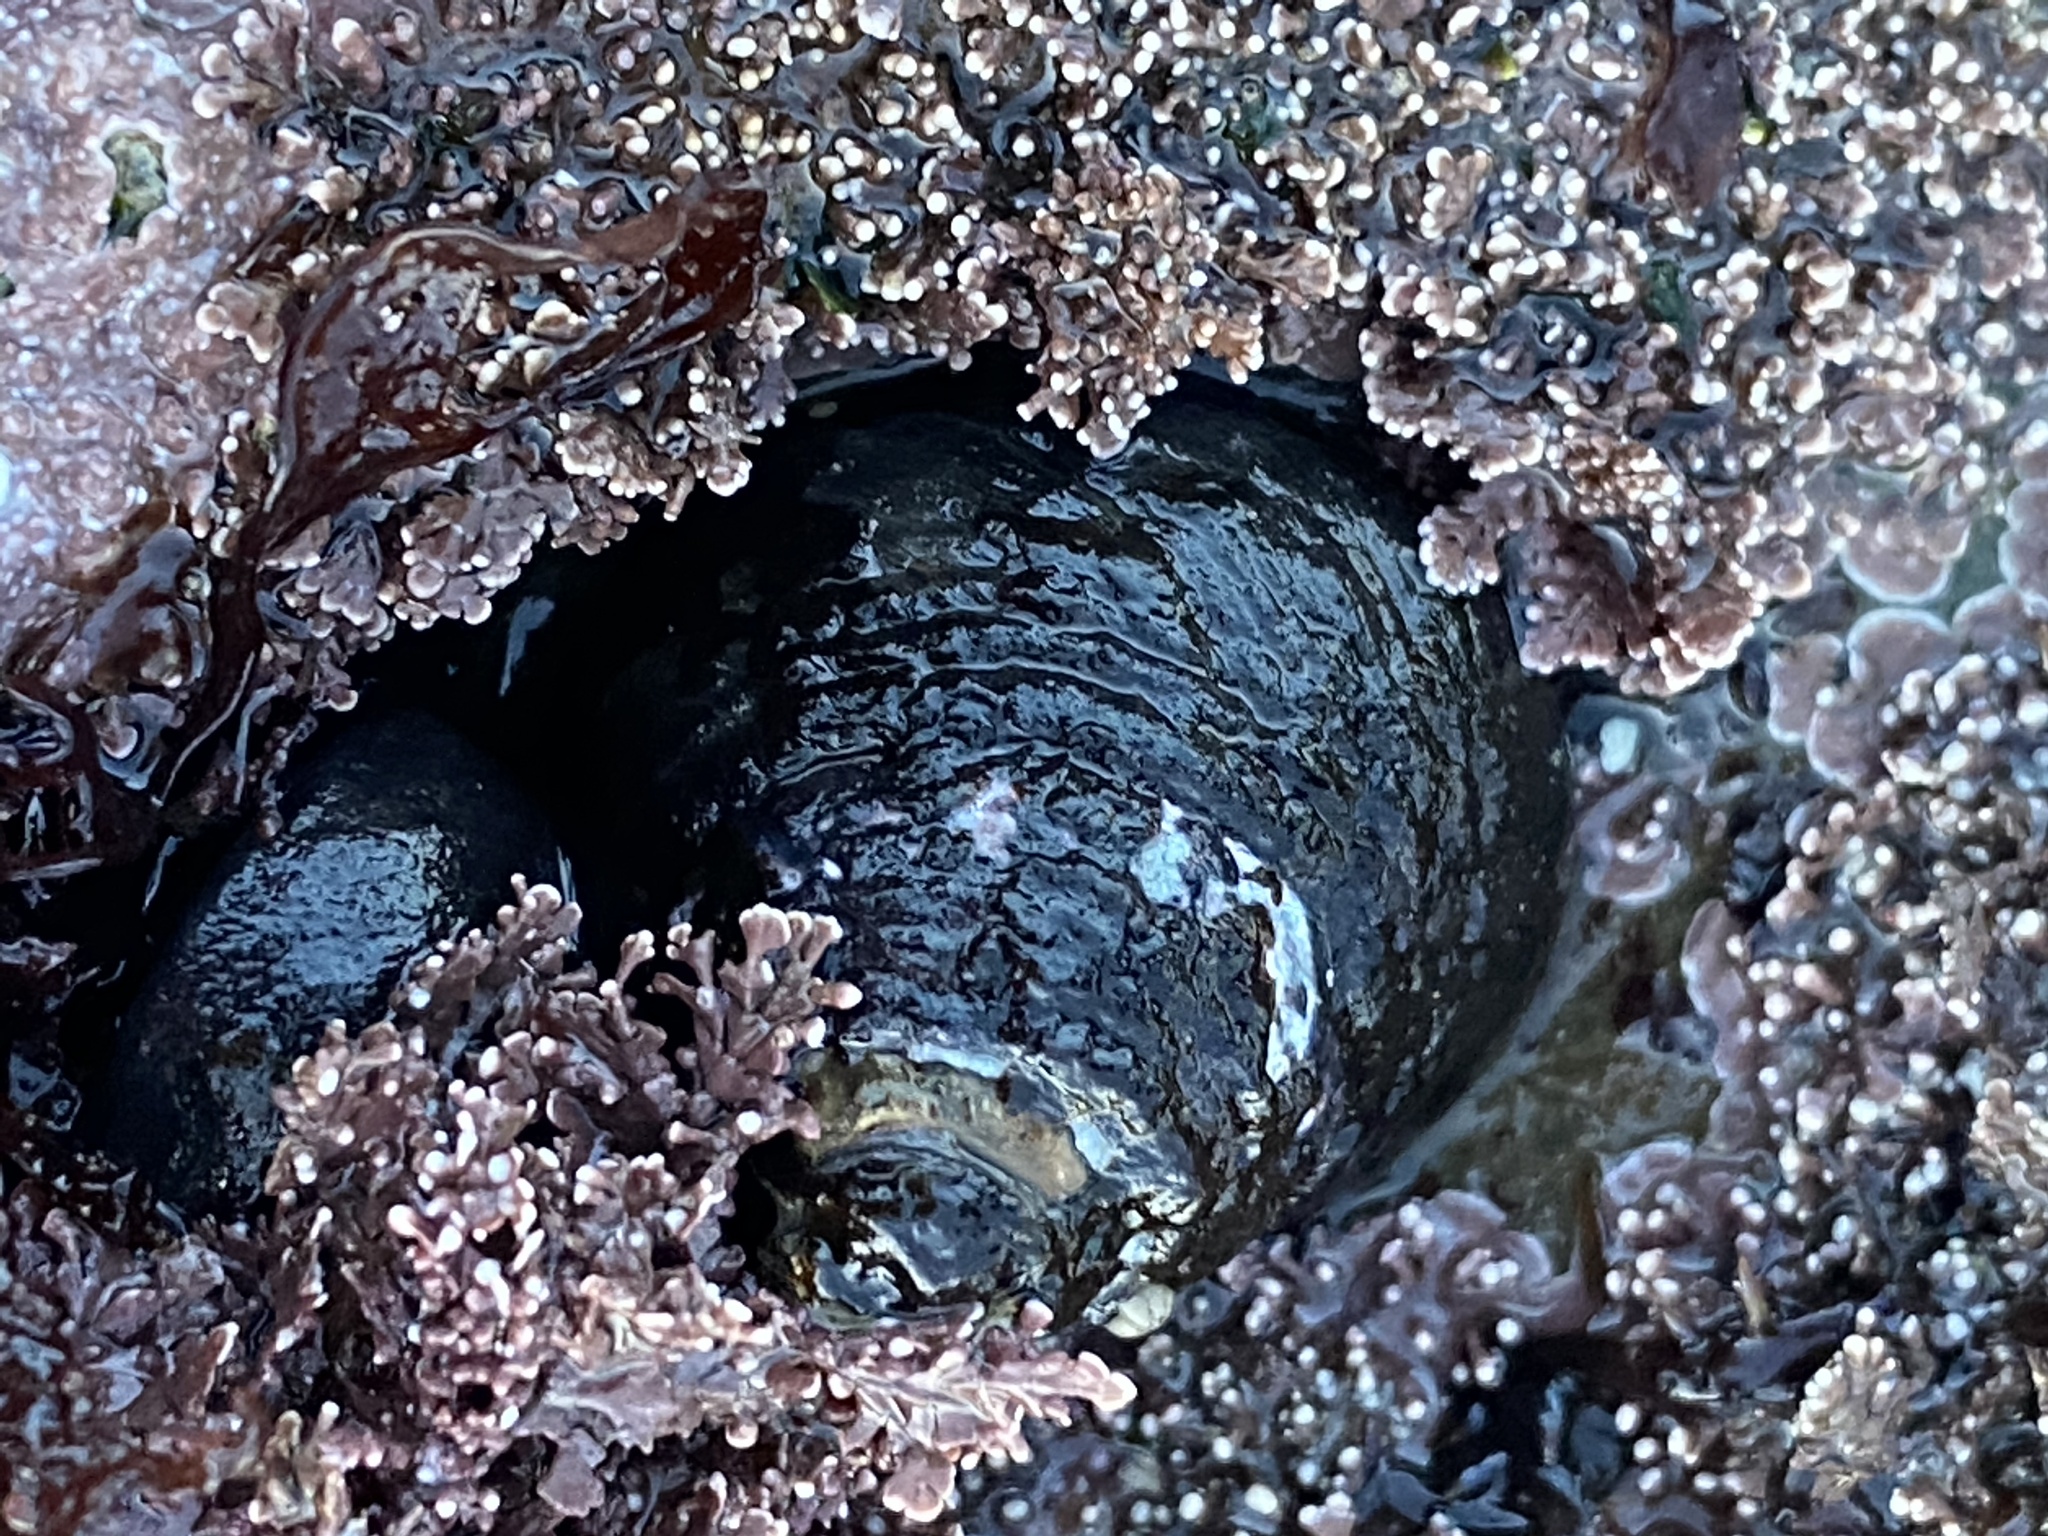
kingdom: Animalia
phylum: Mollusca
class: Gastropoda
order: Trochida
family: Tegulidae
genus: Tegula
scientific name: Tegula funebralis
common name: Black tegula
